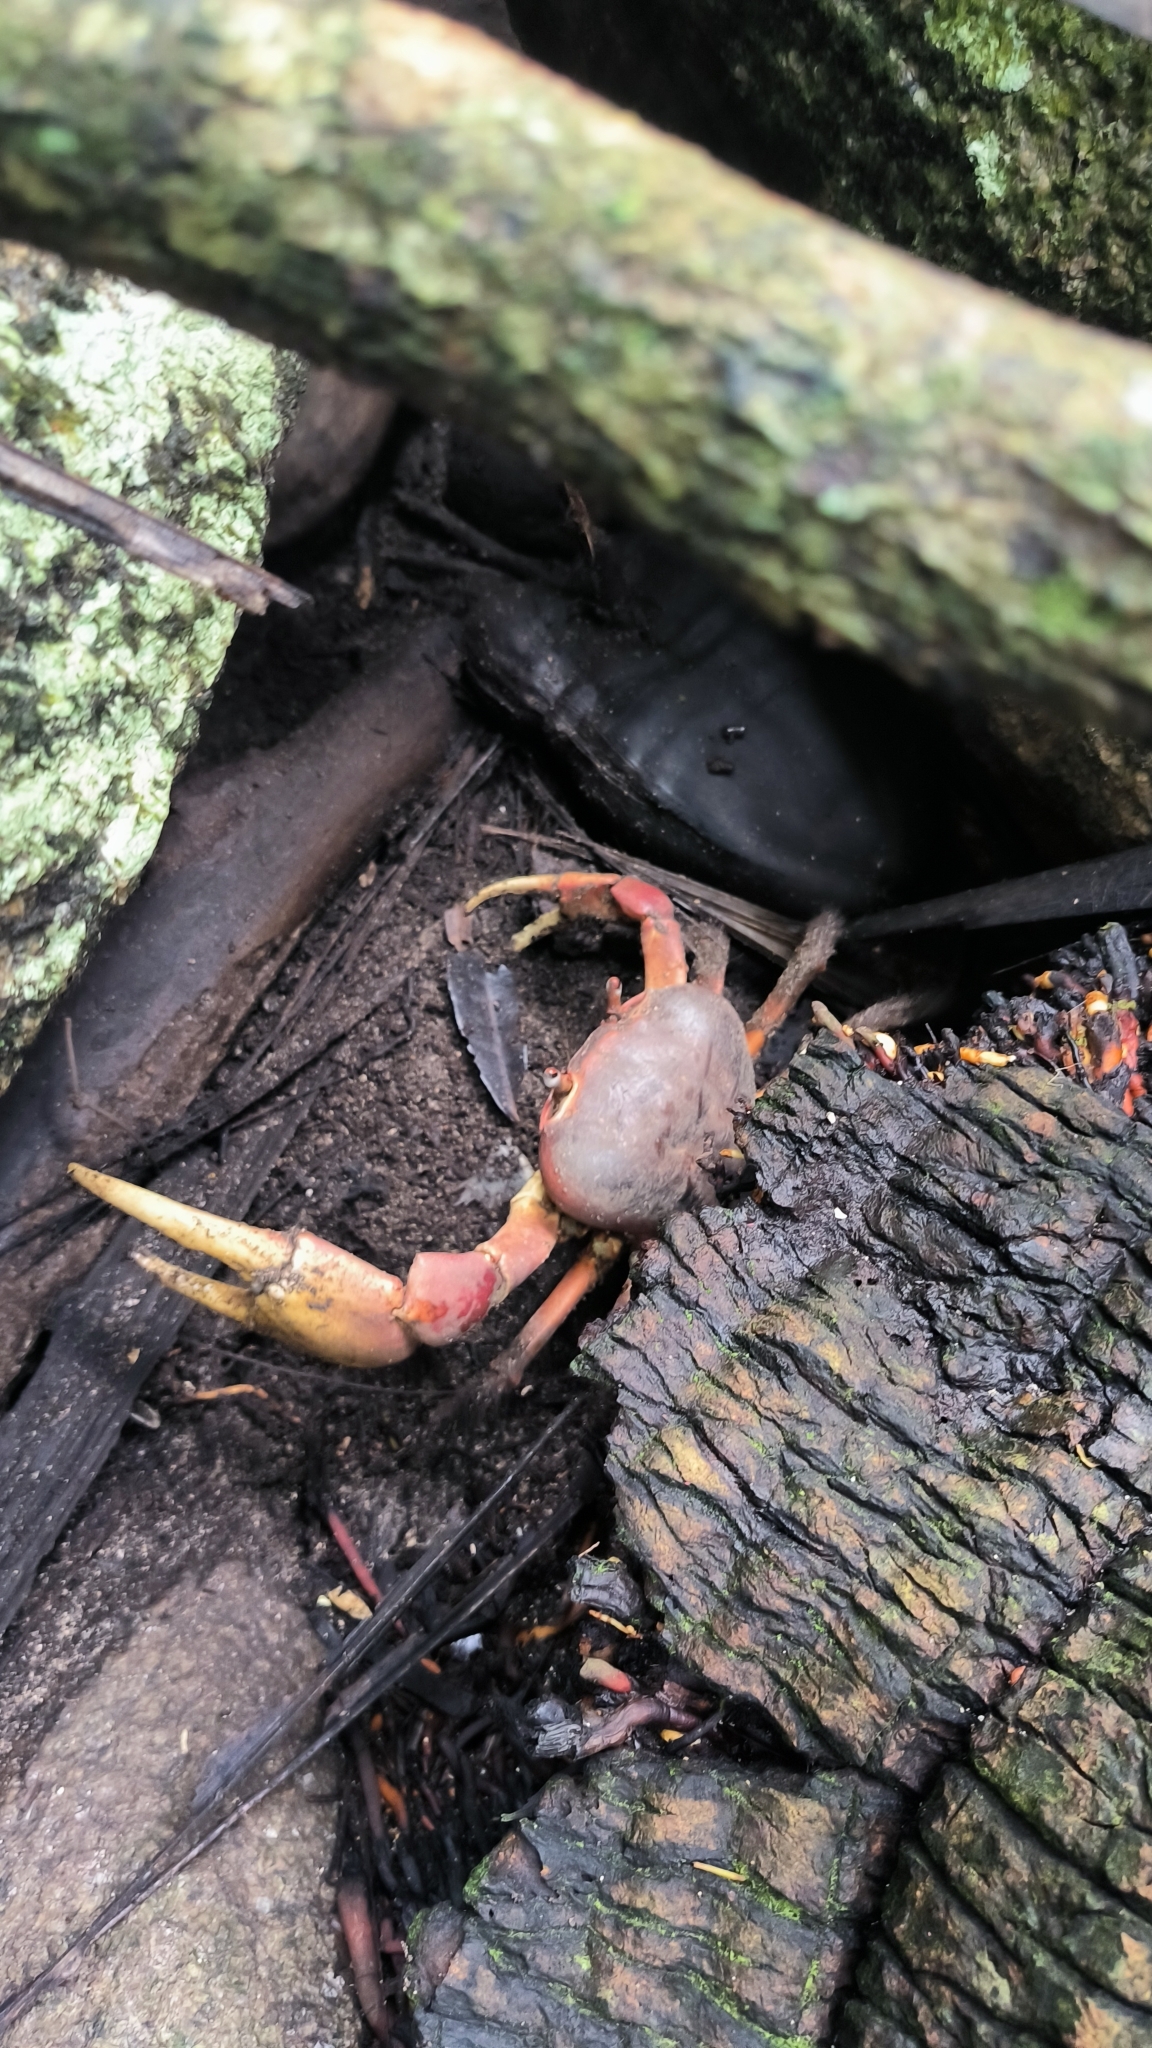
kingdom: Animalia
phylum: Arthropoda
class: Malacostraca
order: Decapoda
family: Gecarcinidae
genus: Cardisoma
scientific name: Cardisoma carnifex
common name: Brown land crab
